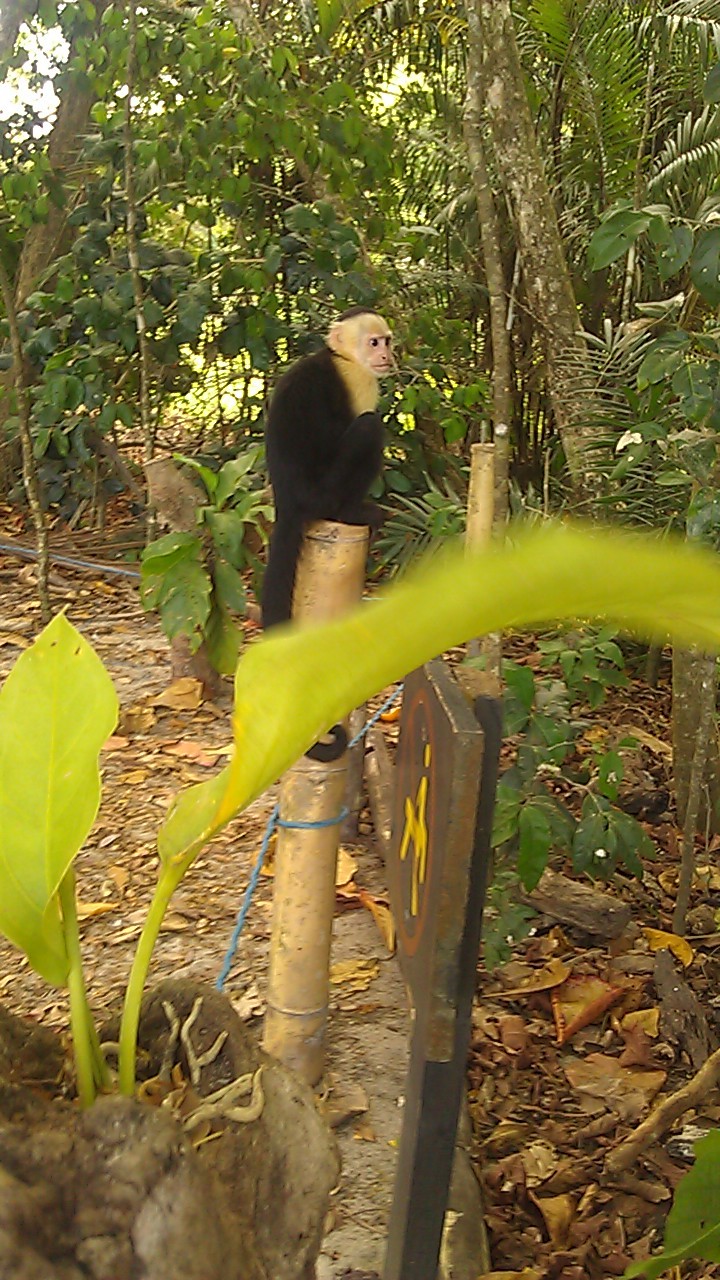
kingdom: Animalia
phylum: Chordata
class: Mammalia
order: Primates
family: Cebidae
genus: Cebus
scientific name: Cebus imitator
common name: Panamanian white-faced capuchin
